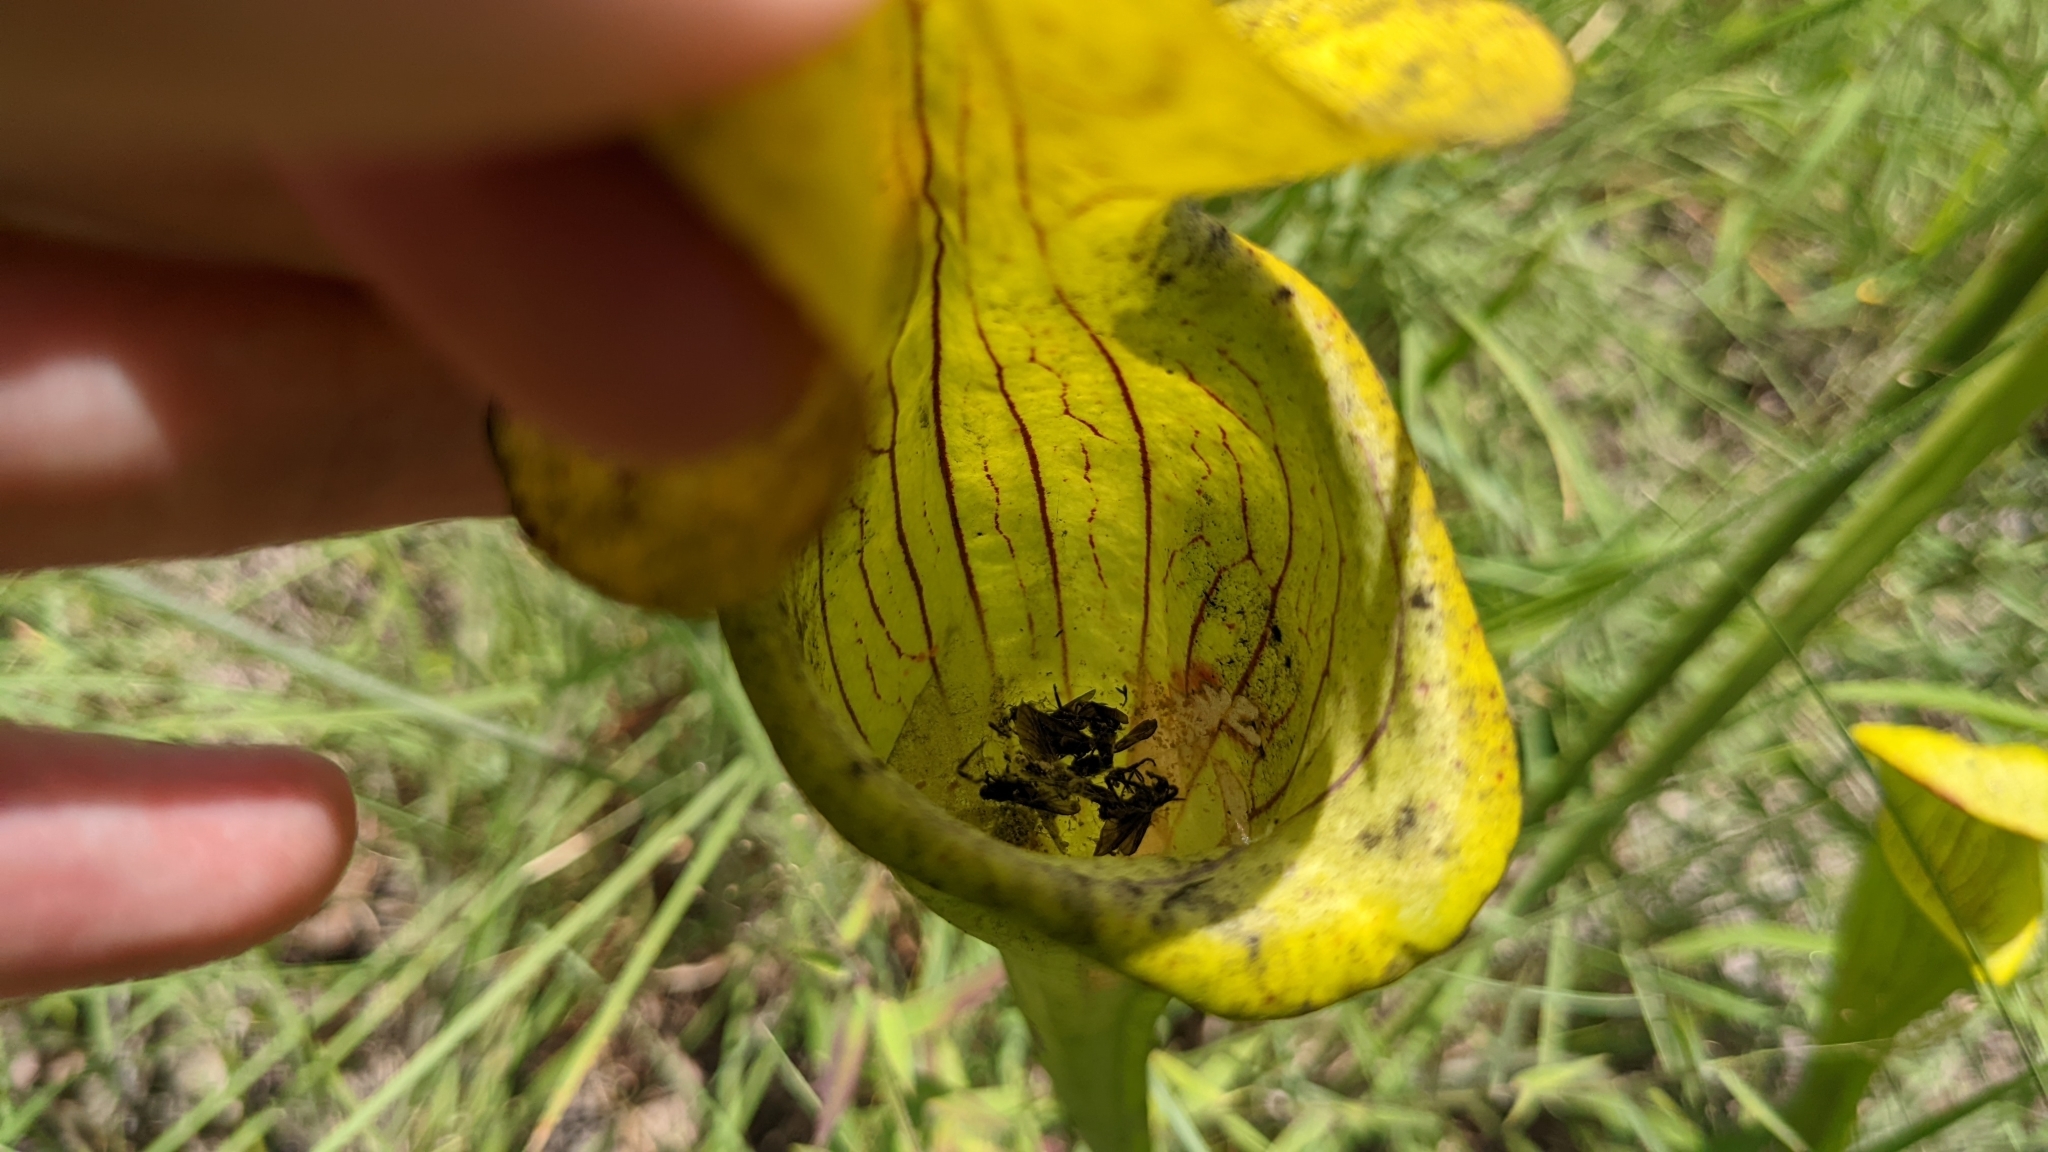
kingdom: Plantae
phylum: Tracheophyta
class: Magnoliopsida
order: Ericales
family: Sarraceniaceae
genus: Sarracenia
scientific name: Sarracenia alata
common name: Yellow trumpets
